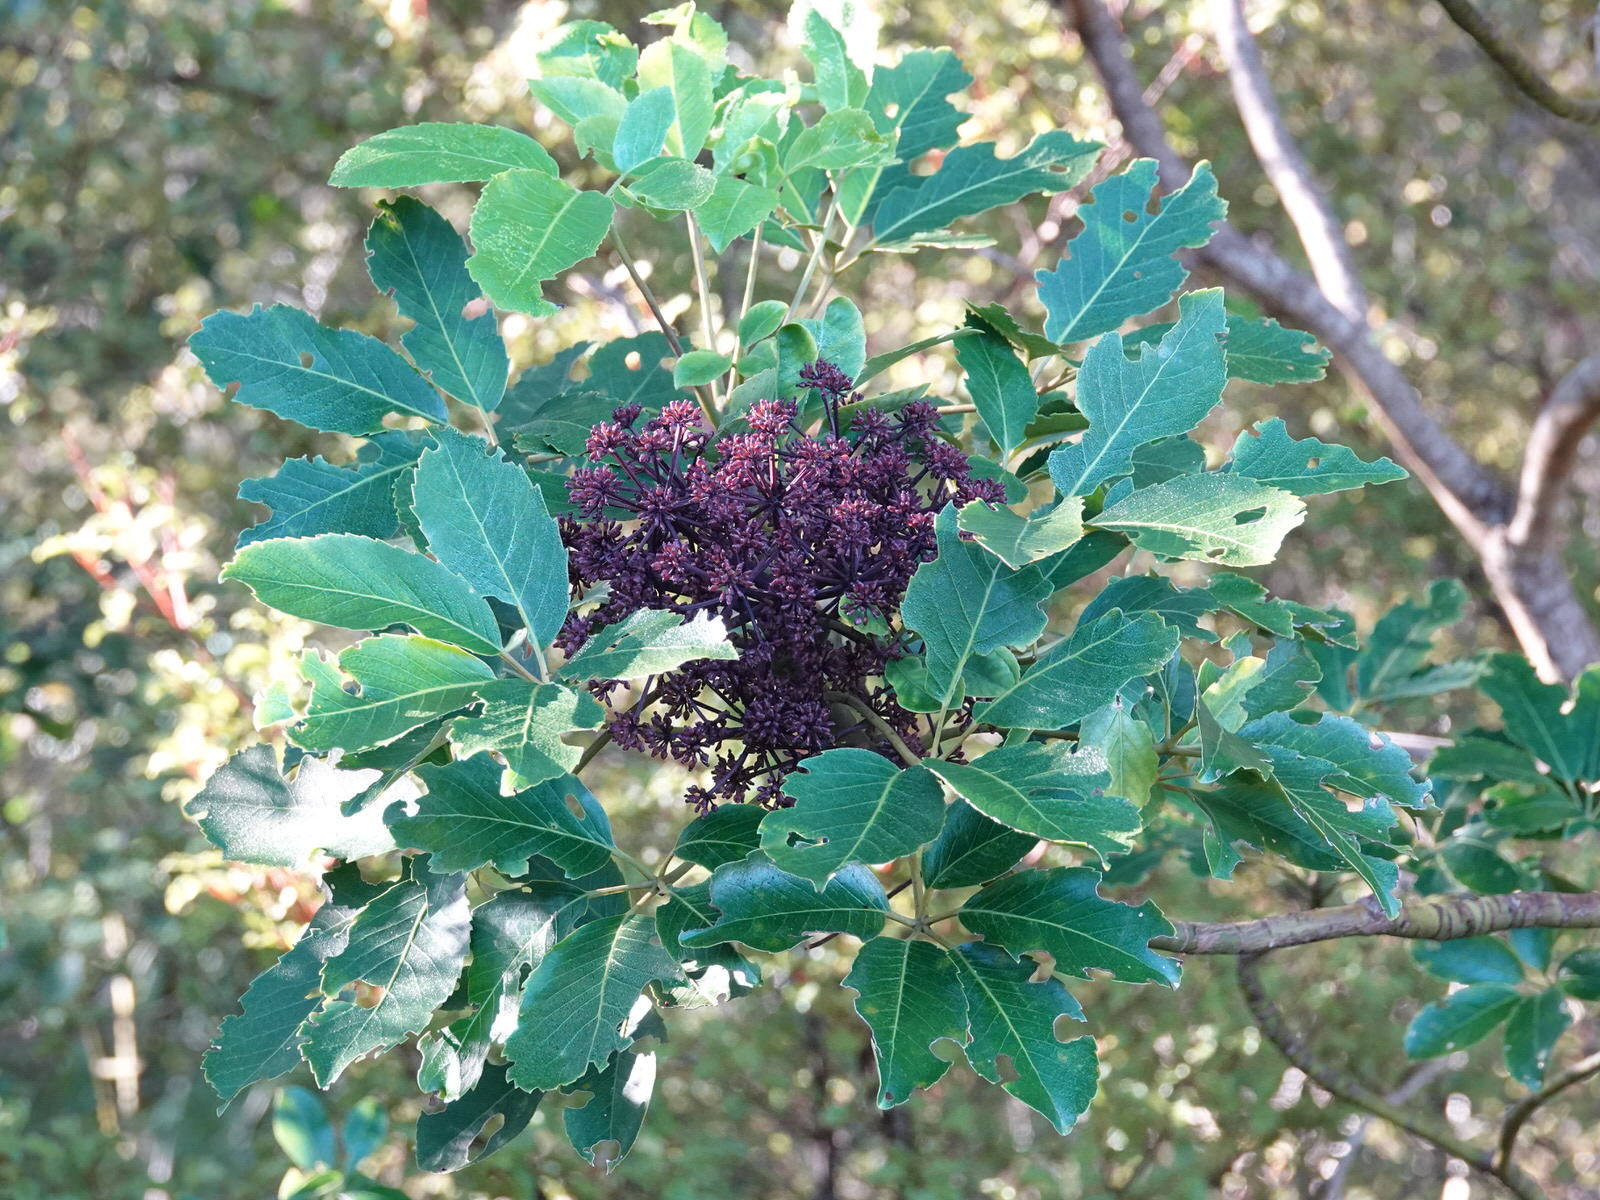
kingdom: Plantae
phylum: Tracheophyta
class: Magnoliopsida
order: Apiales
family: Araliaceae
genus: Neopanax
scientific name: Neopanax arboreus
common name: Five-fingers
